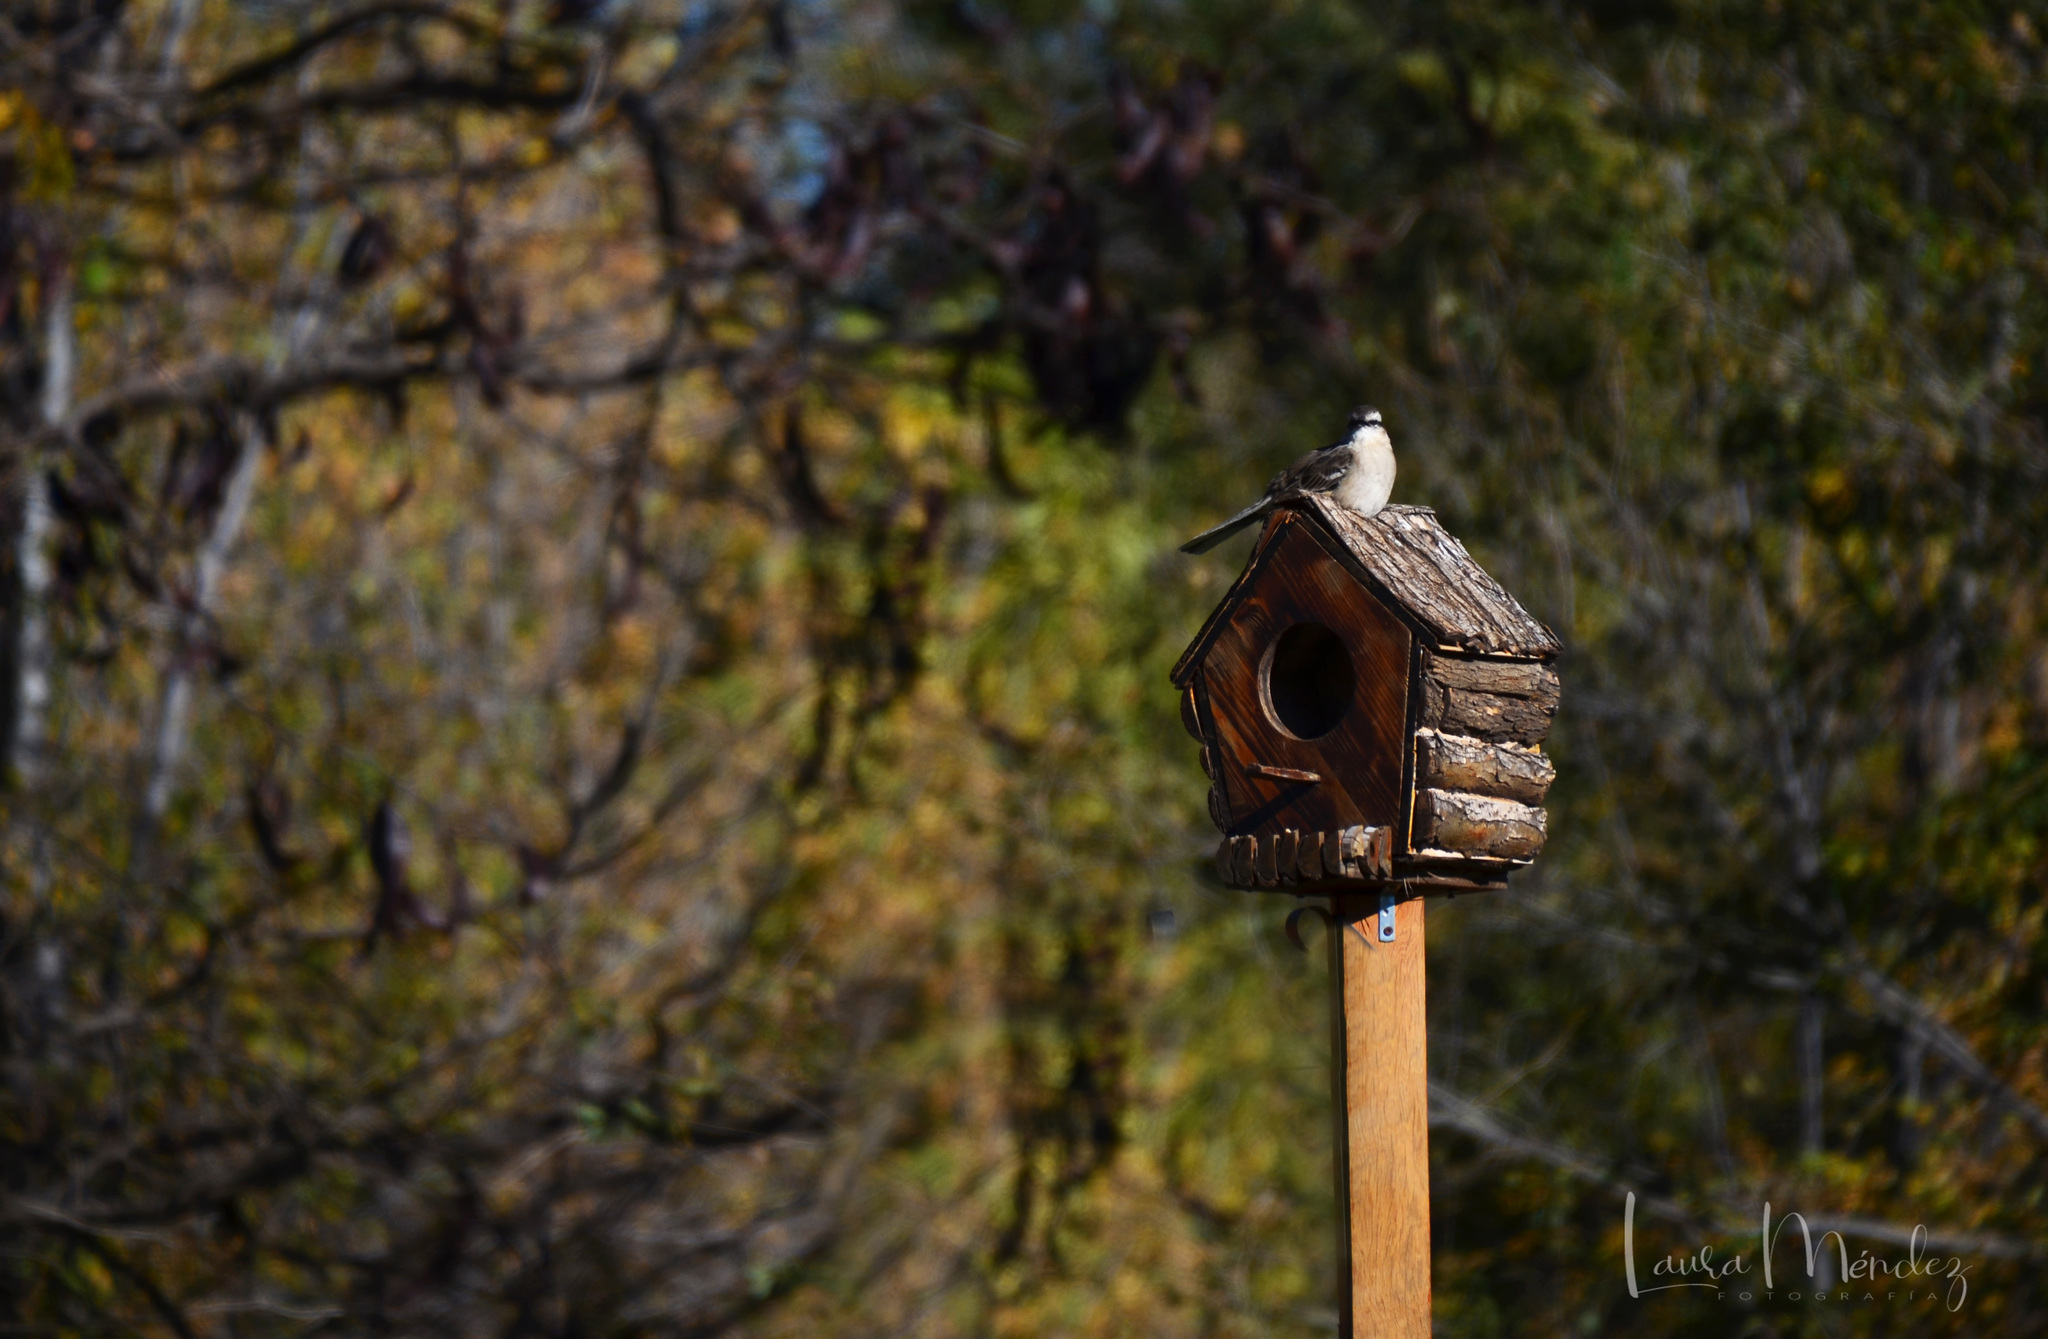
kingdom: Animalia
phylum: Chordata
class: Aves
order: Passeriformes
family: Mimidae
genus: Mimus
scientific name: Mimus saturninus
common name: Chalk-browed mockingbird
